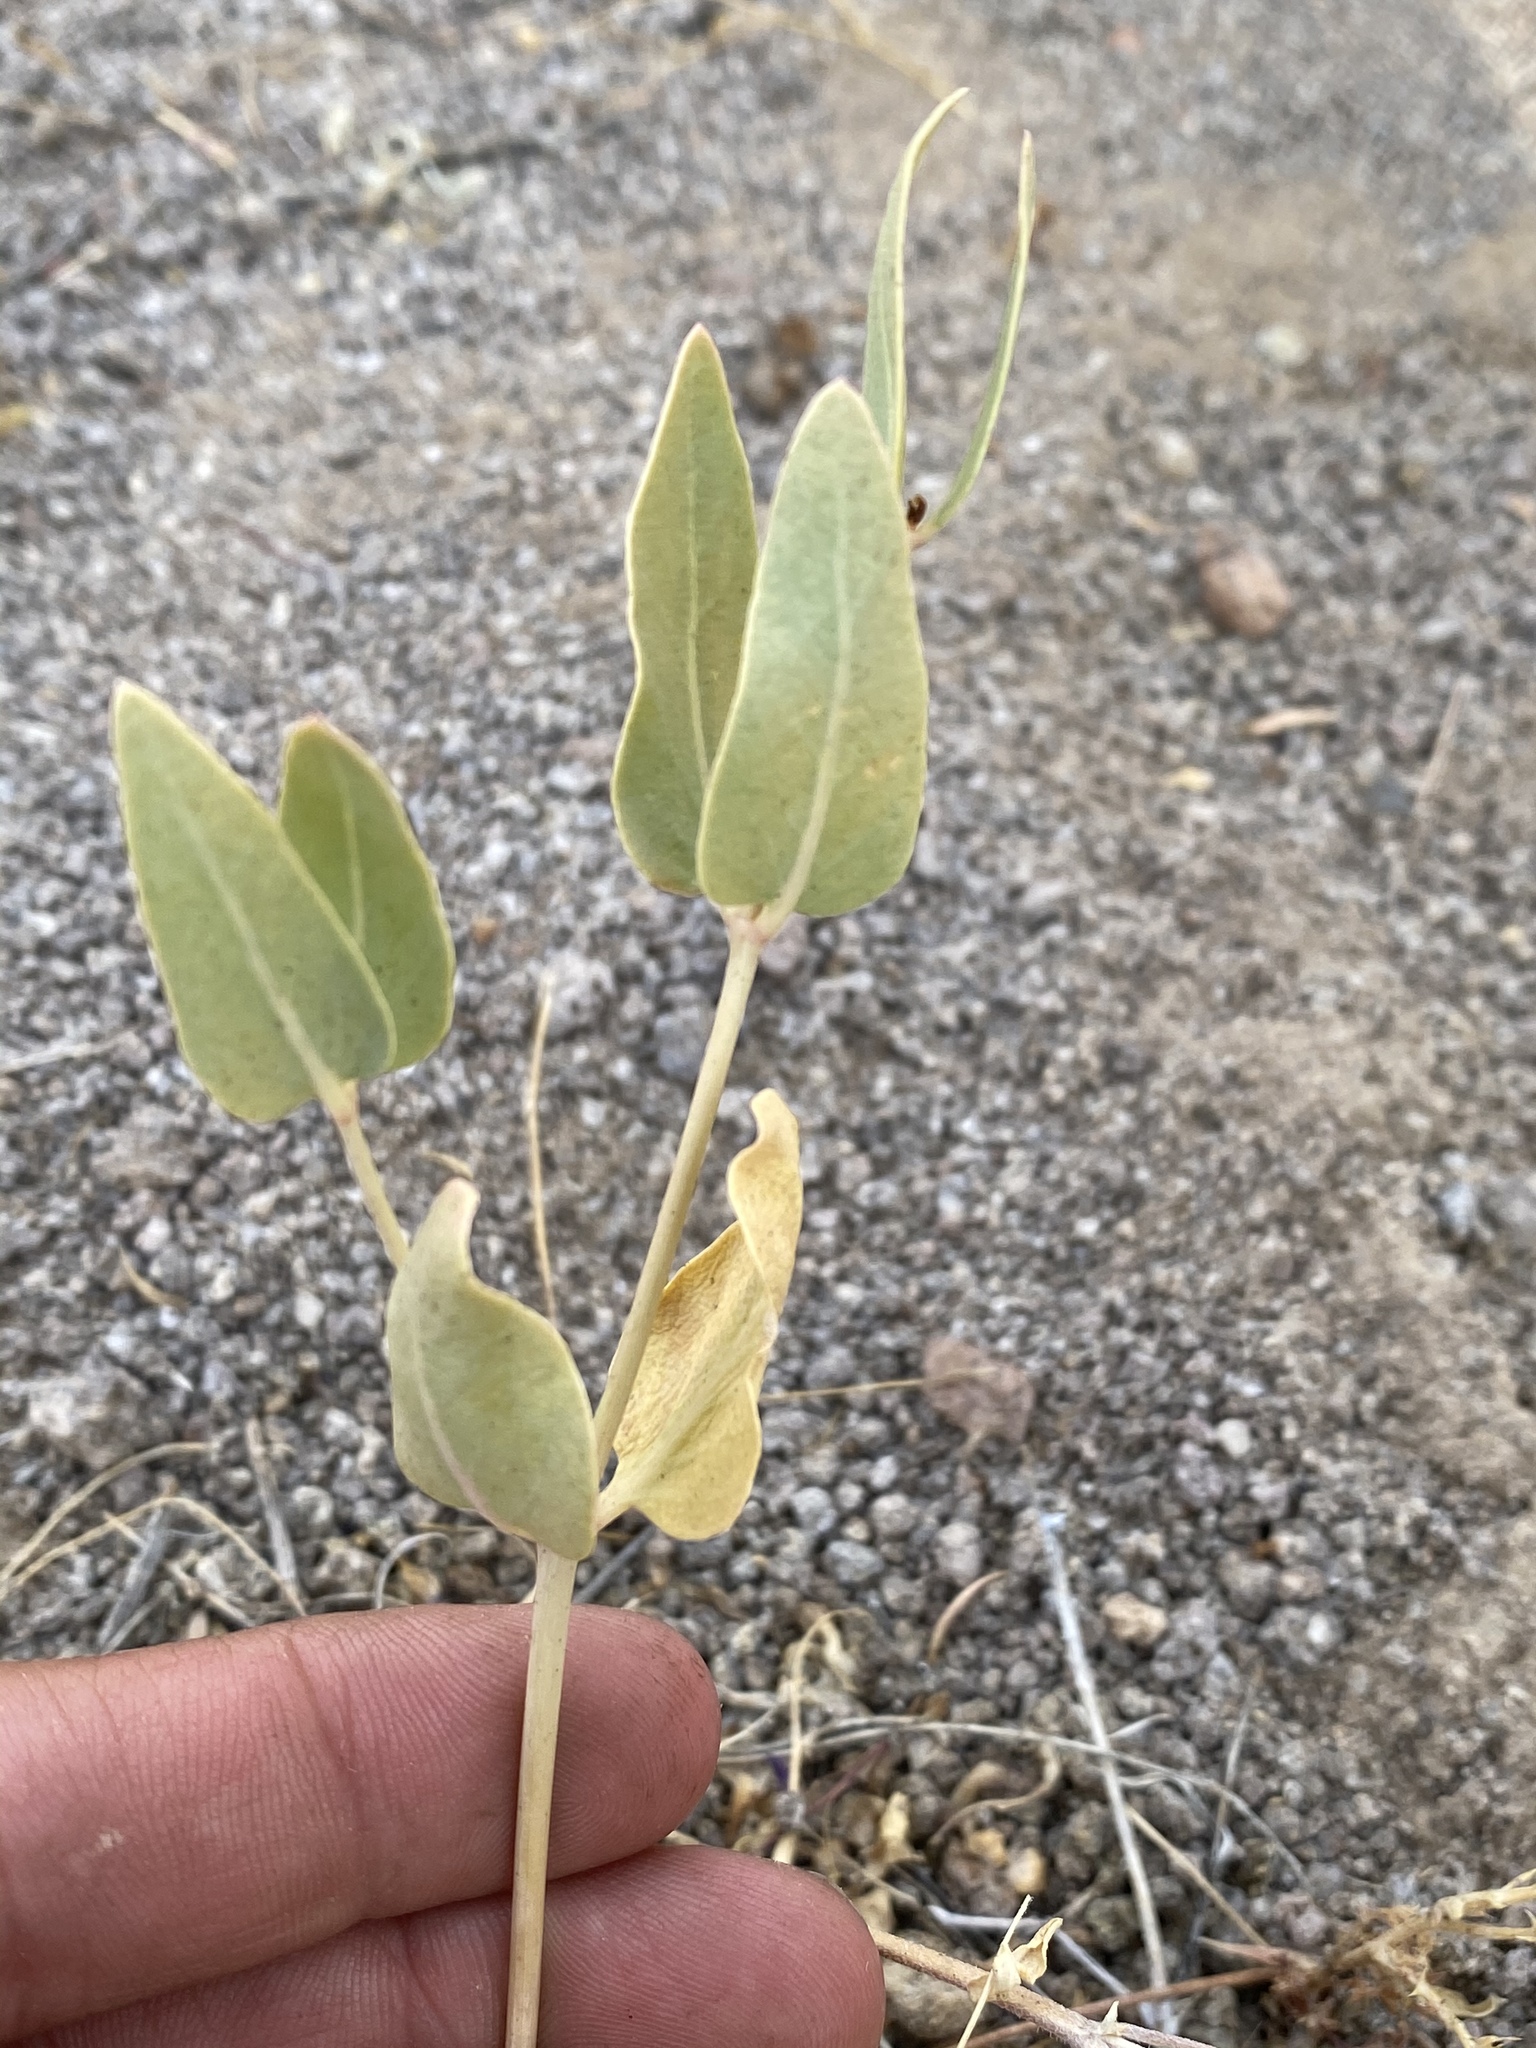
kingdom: Plantae
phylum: Tracheophyta
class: Magnoliopsida
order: Caryophyllales
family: Nyctaginaceae
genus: Mirabilis
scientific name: Mirabilis pudica
